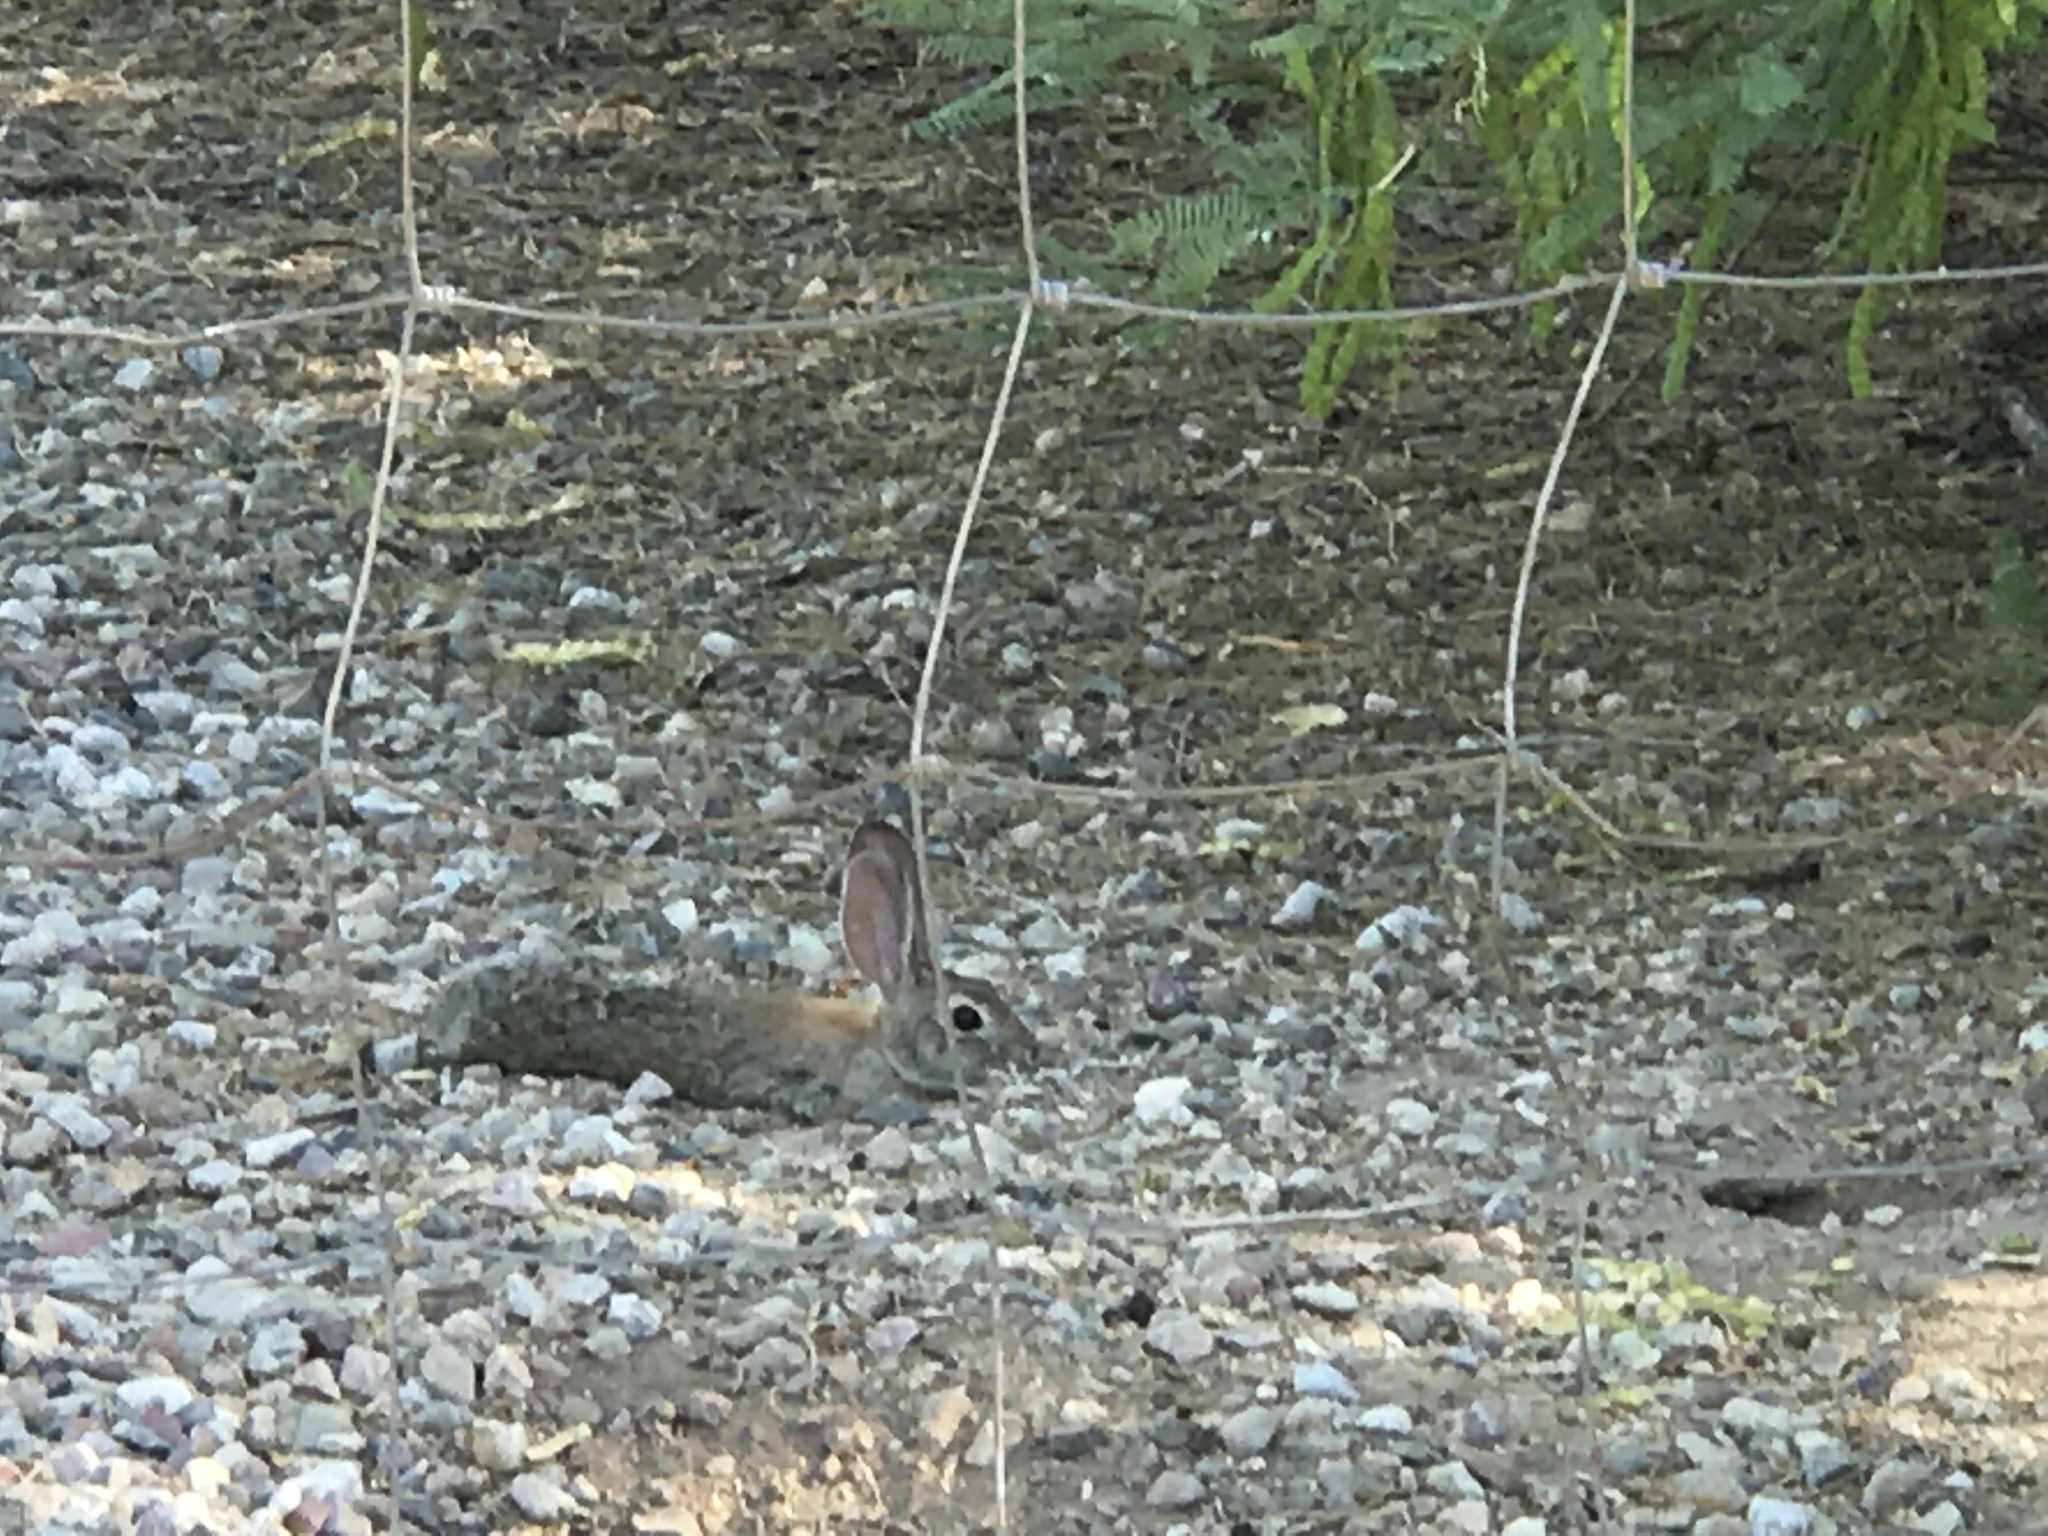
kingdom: Animalia
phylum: Chordata
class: Mammalia
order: Lagomorpha
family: Leporidae
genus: Sylvilagus
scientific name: Sylvilagus audubonii
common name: Desert cottontail
